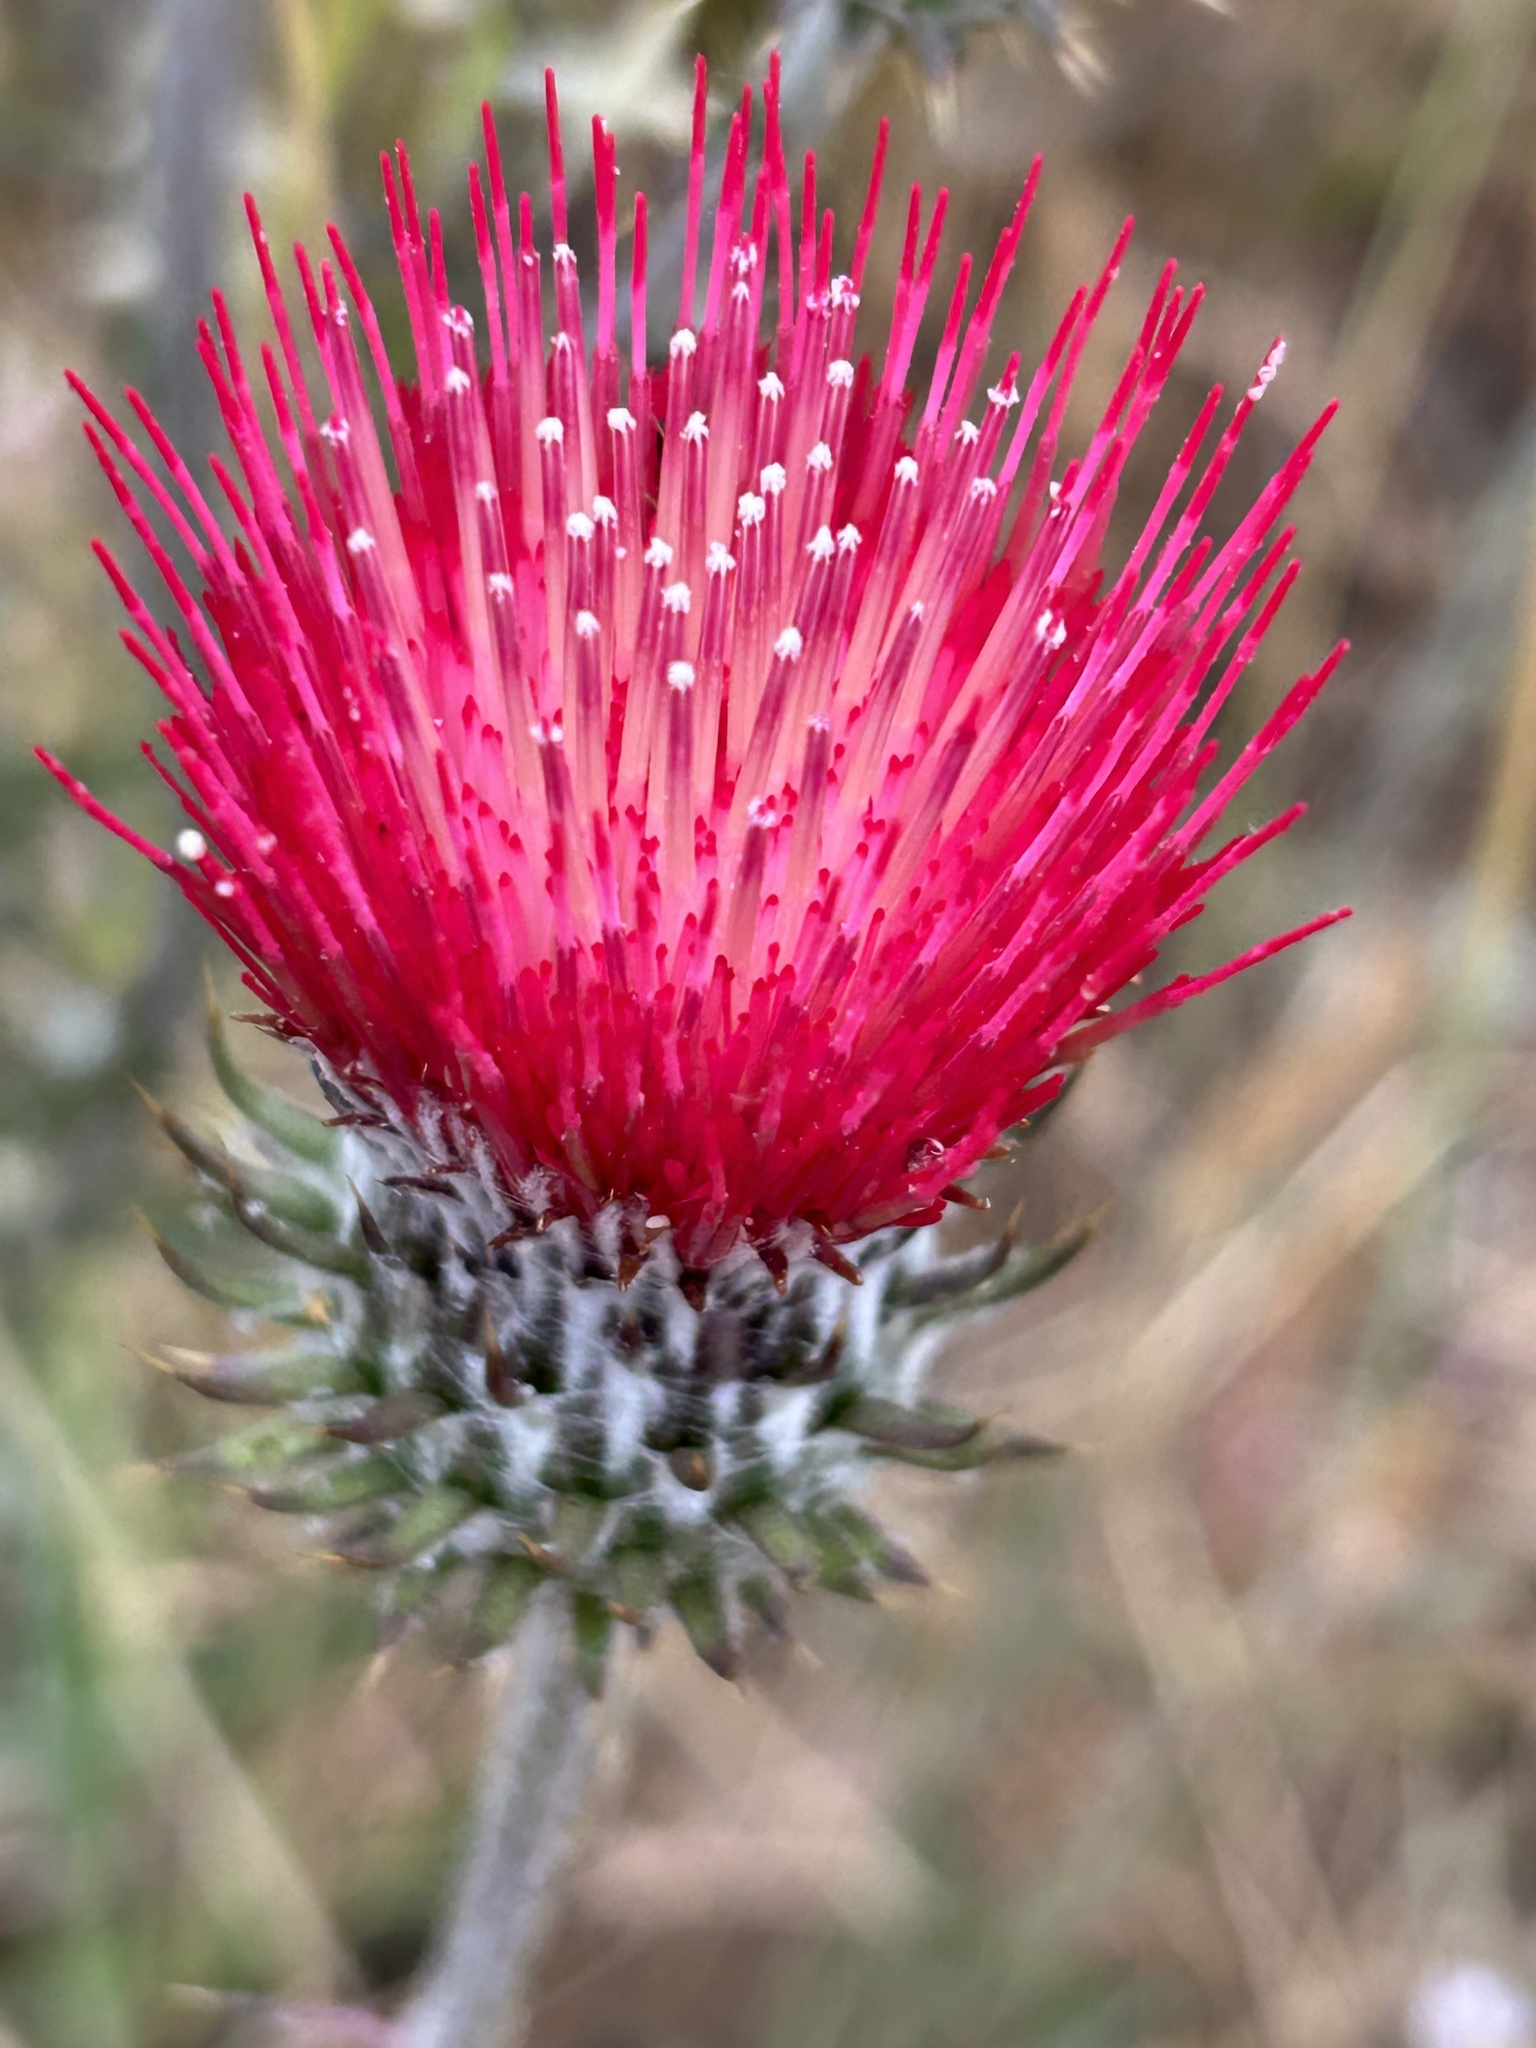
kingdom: Plantae
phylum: Tracheophyta
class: Magnoliopsida
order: Asterales
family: Asteraceae
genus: Cirsium
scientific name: Cirsium occidentale
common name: Western thistle
